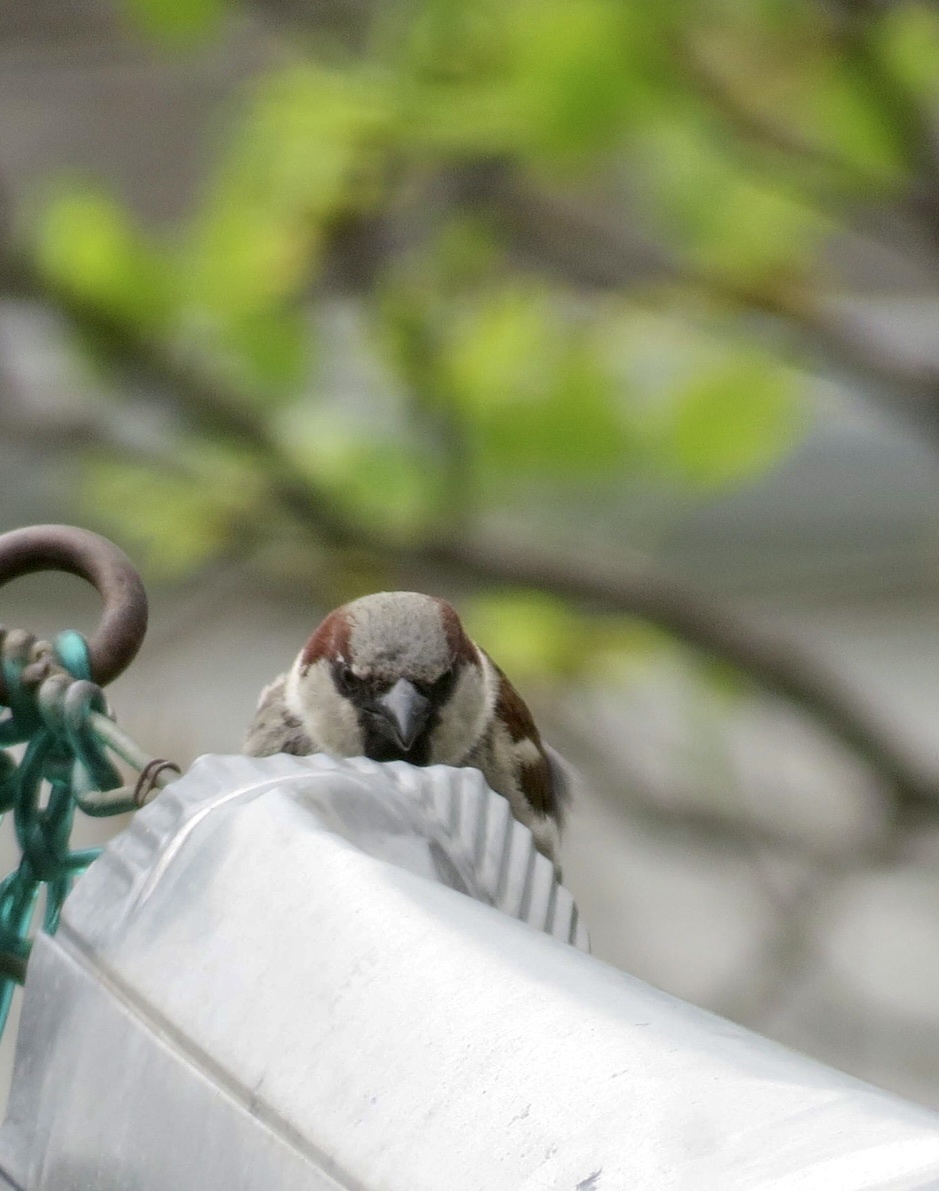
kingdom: Animalia
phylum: Chordata
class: Aves
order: Passeriformes
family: Passeridae
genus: Passer
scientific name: Passer domesticus
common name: House sparrow
